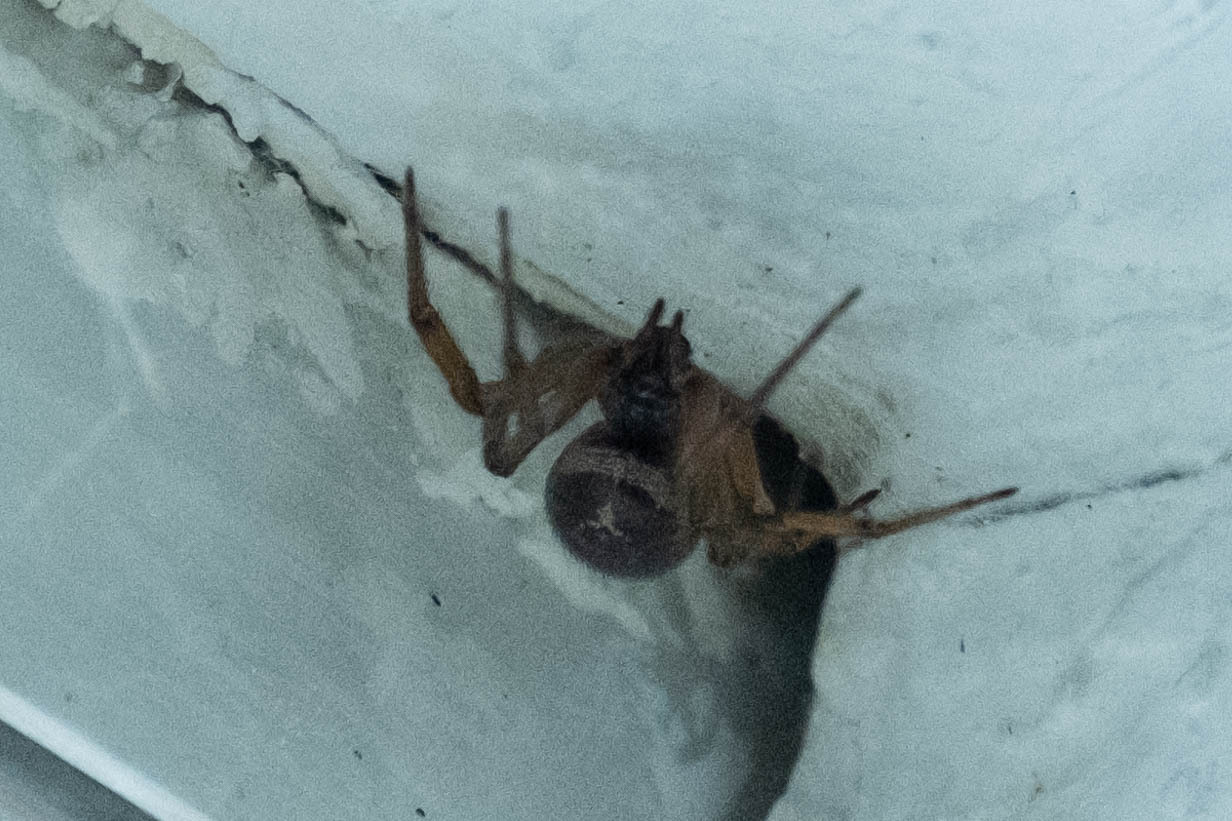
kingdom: Animalia
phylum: Arthropoda
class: Arachnida
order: Araneae
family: Theridiidae
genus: Steatoda
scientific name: Steatoda nobilis
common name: Cobweb weaver
